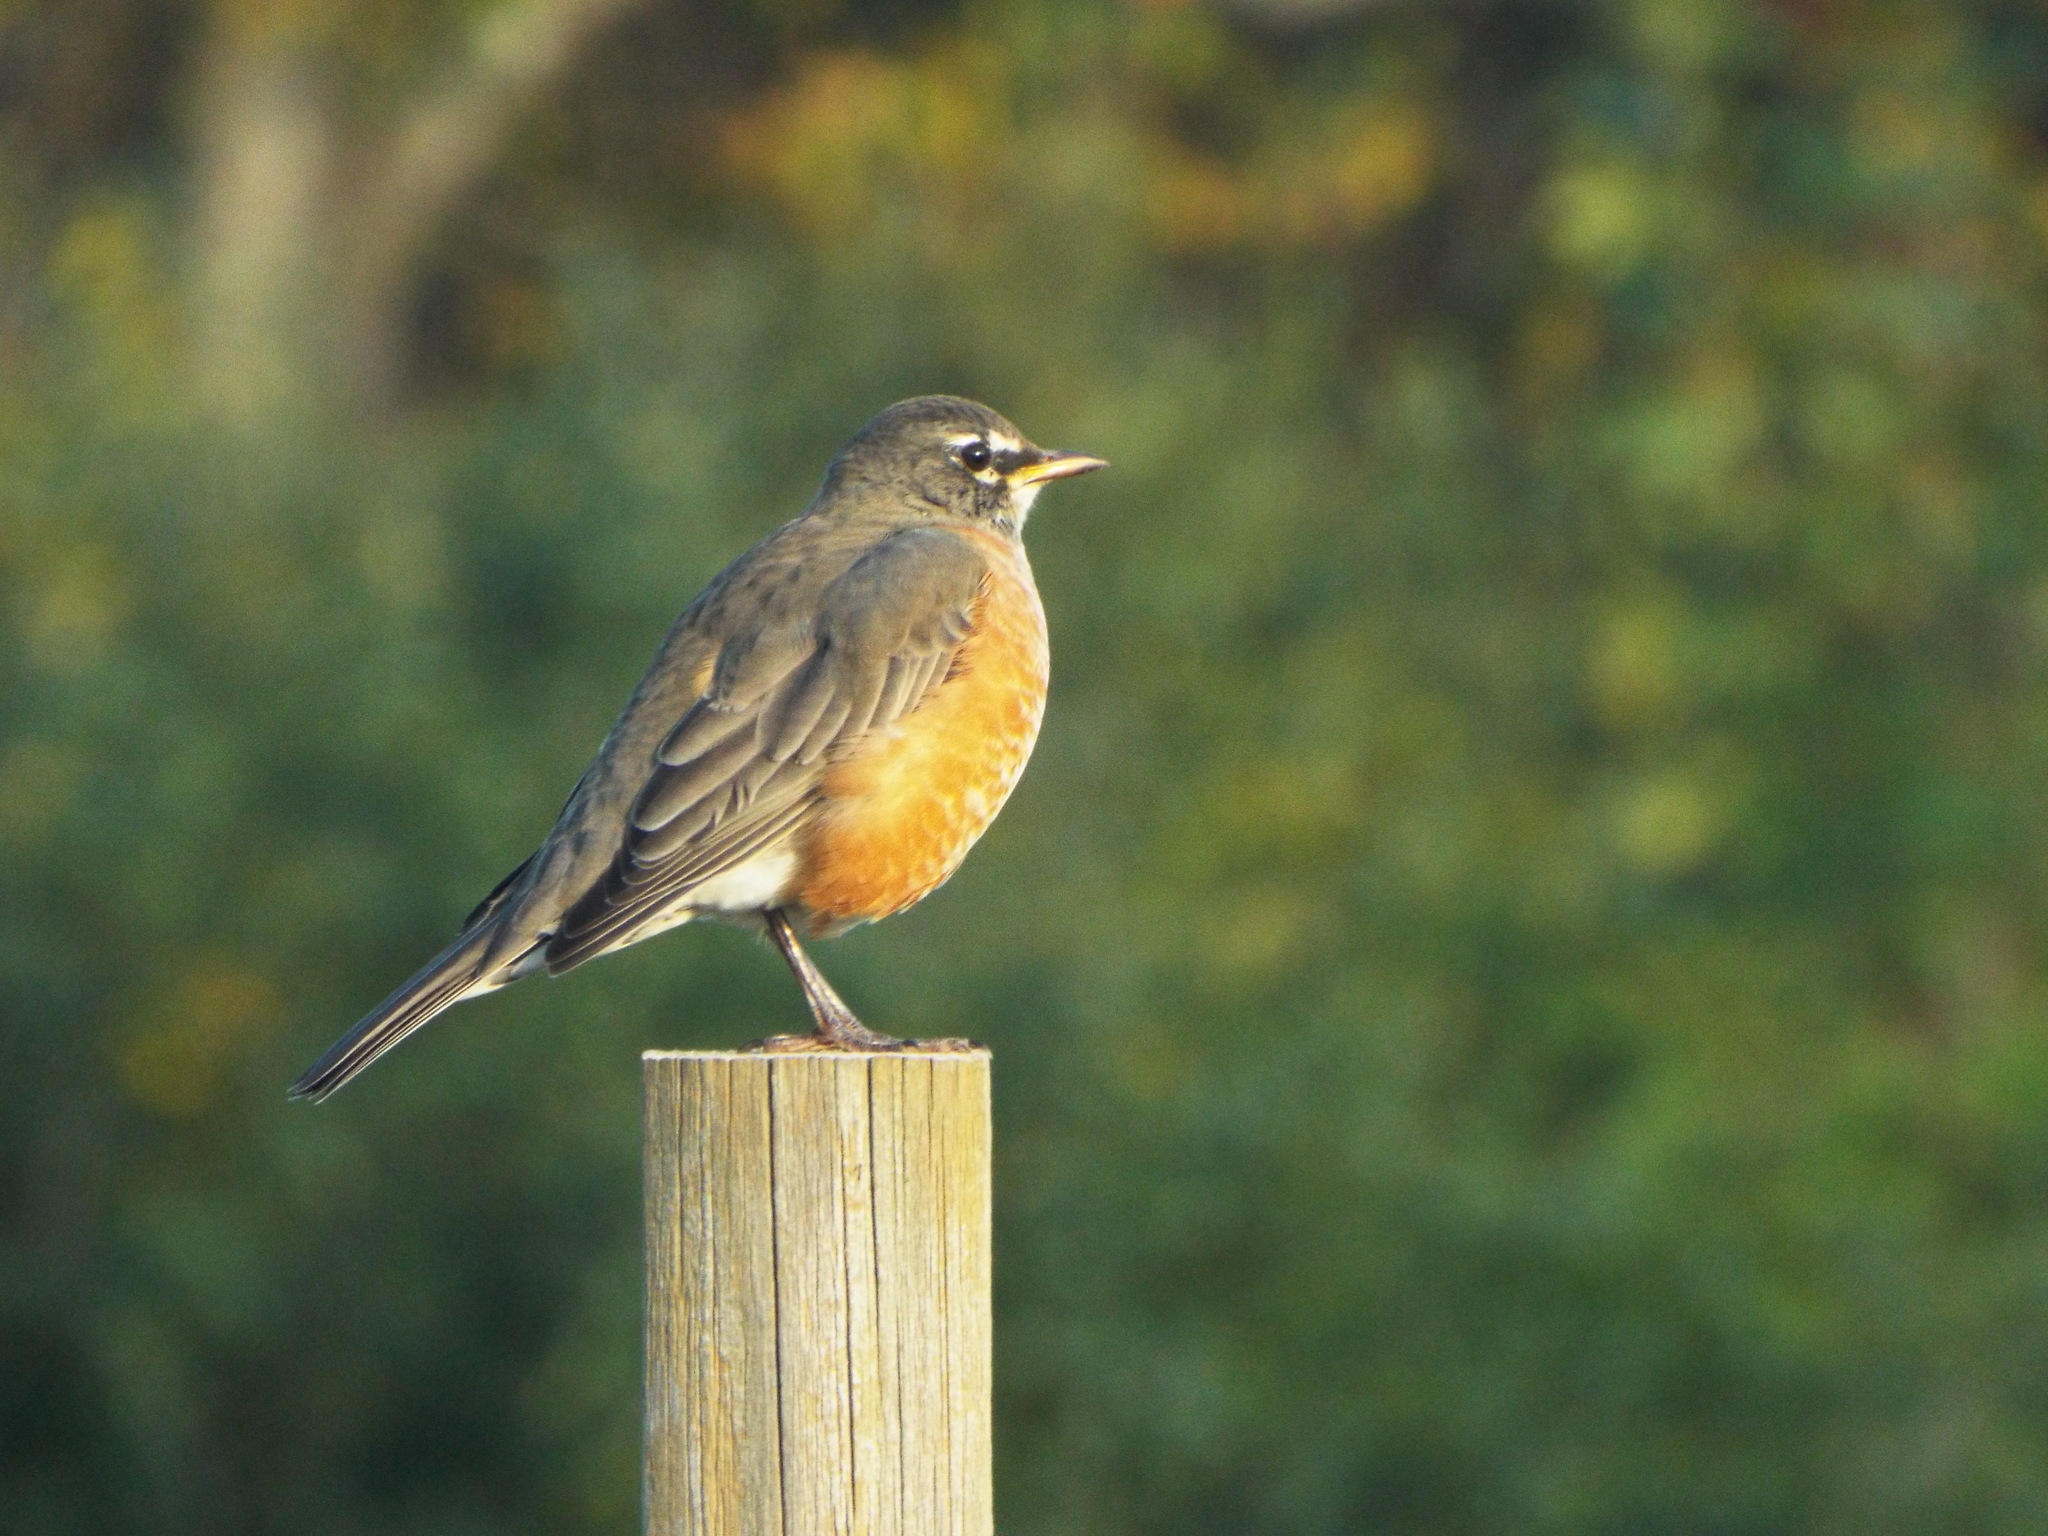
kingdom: Animalia
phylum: Chordata
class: Aves
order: Passeriformes
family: Turdidae
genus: Turdus
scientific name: Turdus migratorius
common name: American robin
